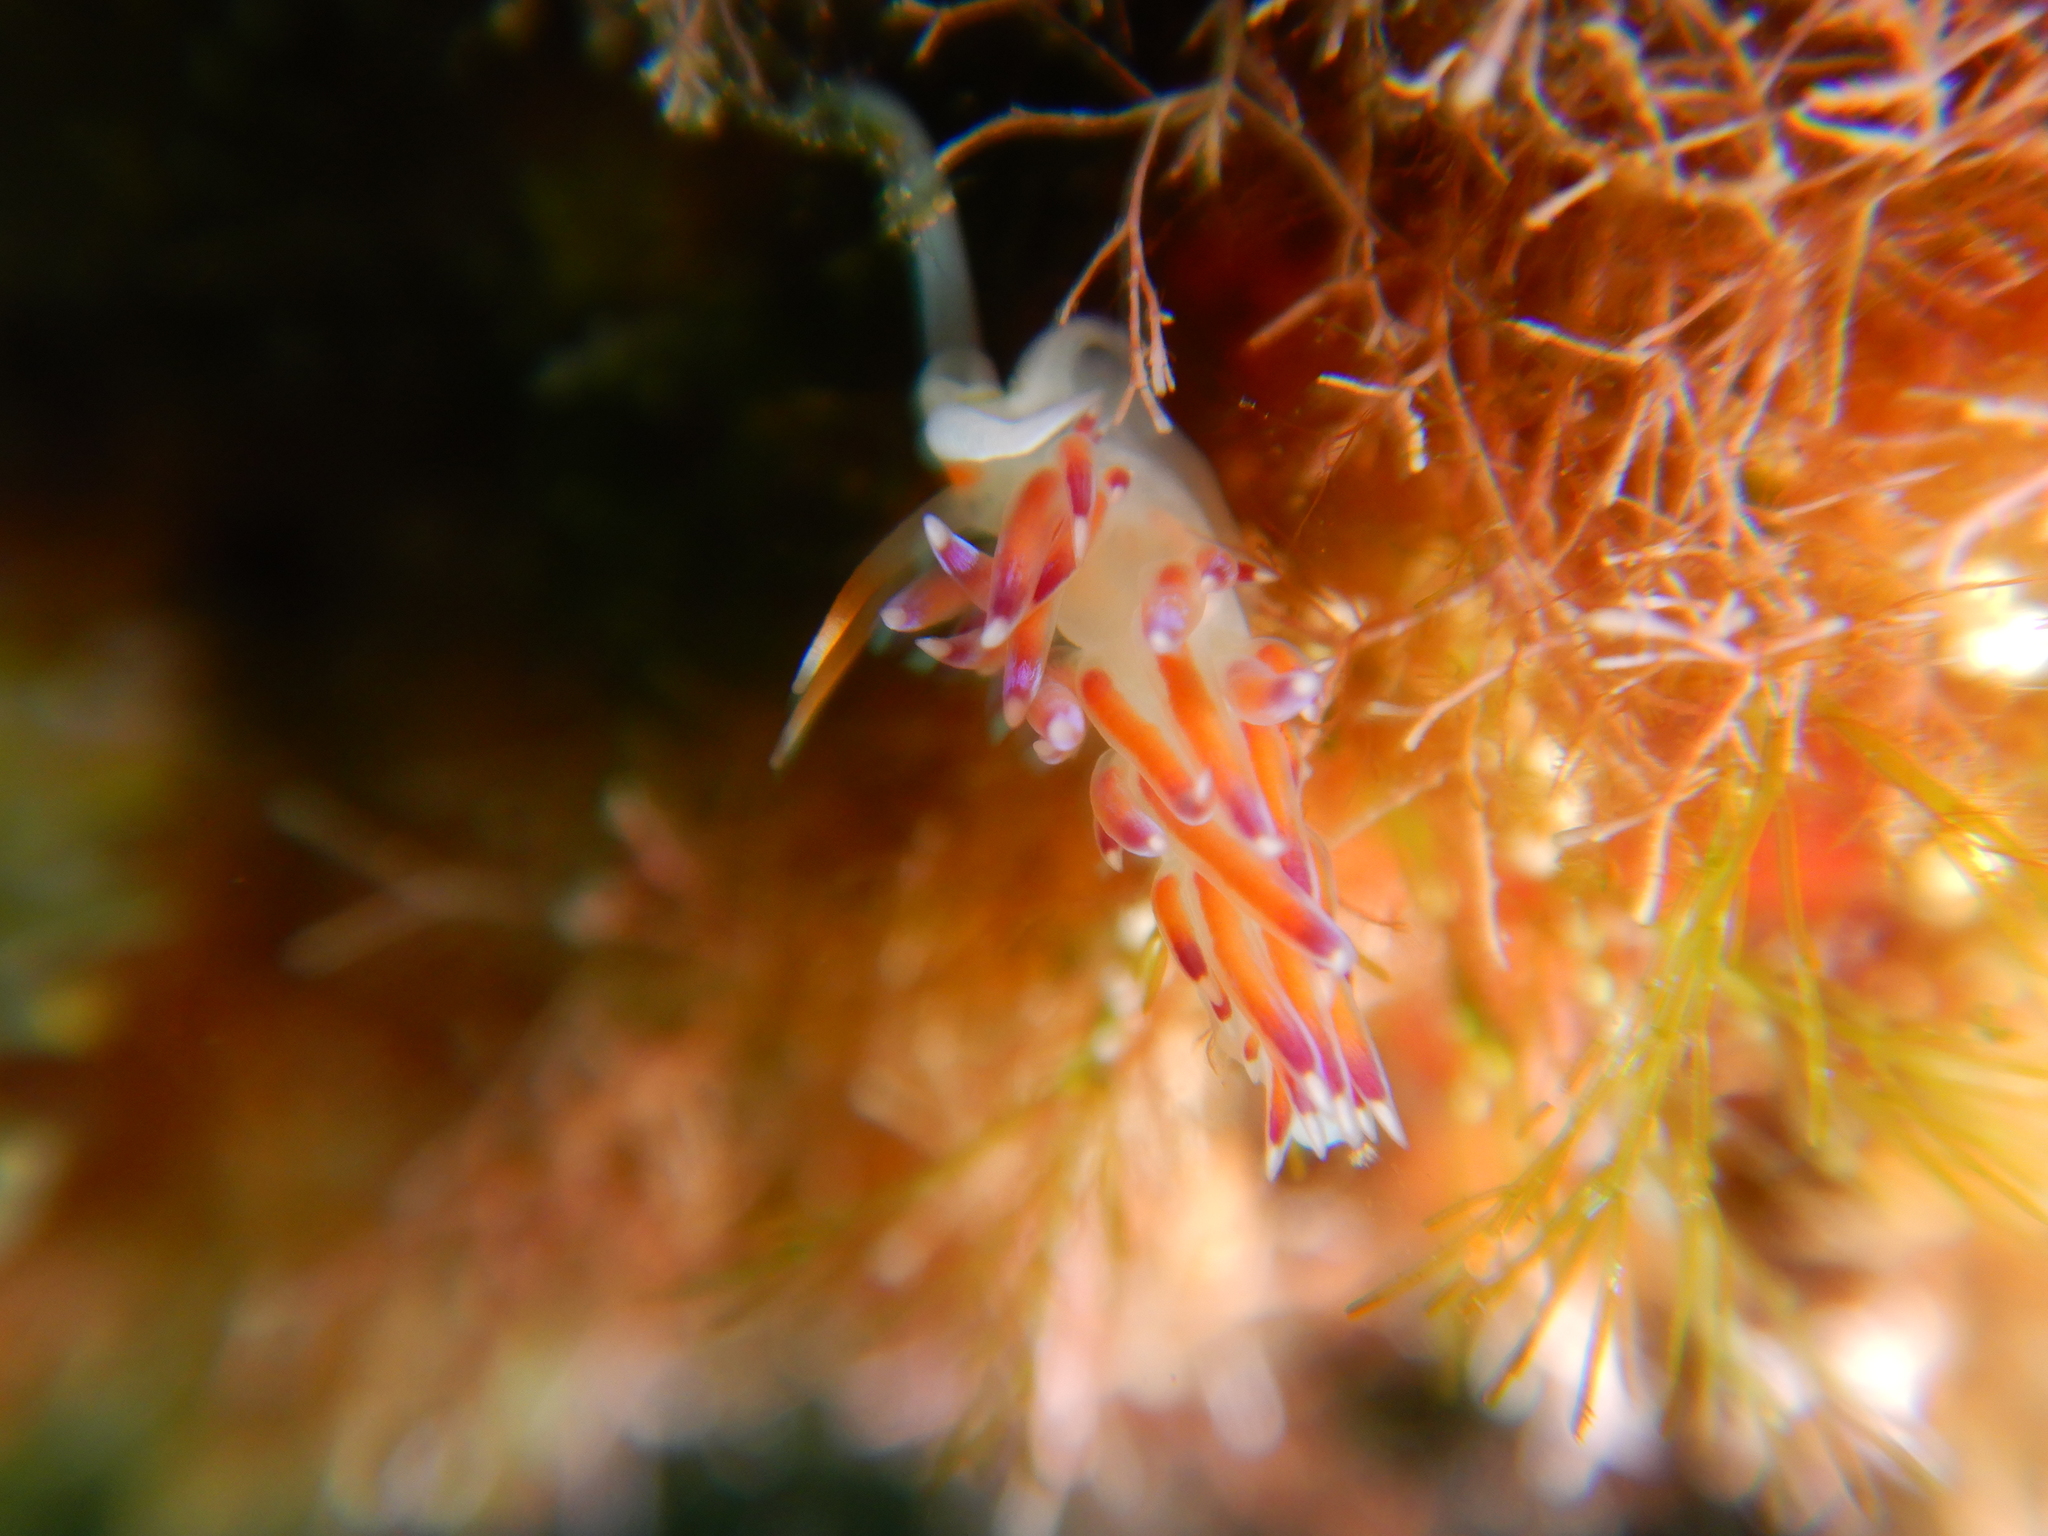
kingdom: Animalia
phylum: Mollusca
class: Gastropoda
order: Nudibranchia
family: Facelinidae
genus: Cratena
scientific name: Cratena peregrina
